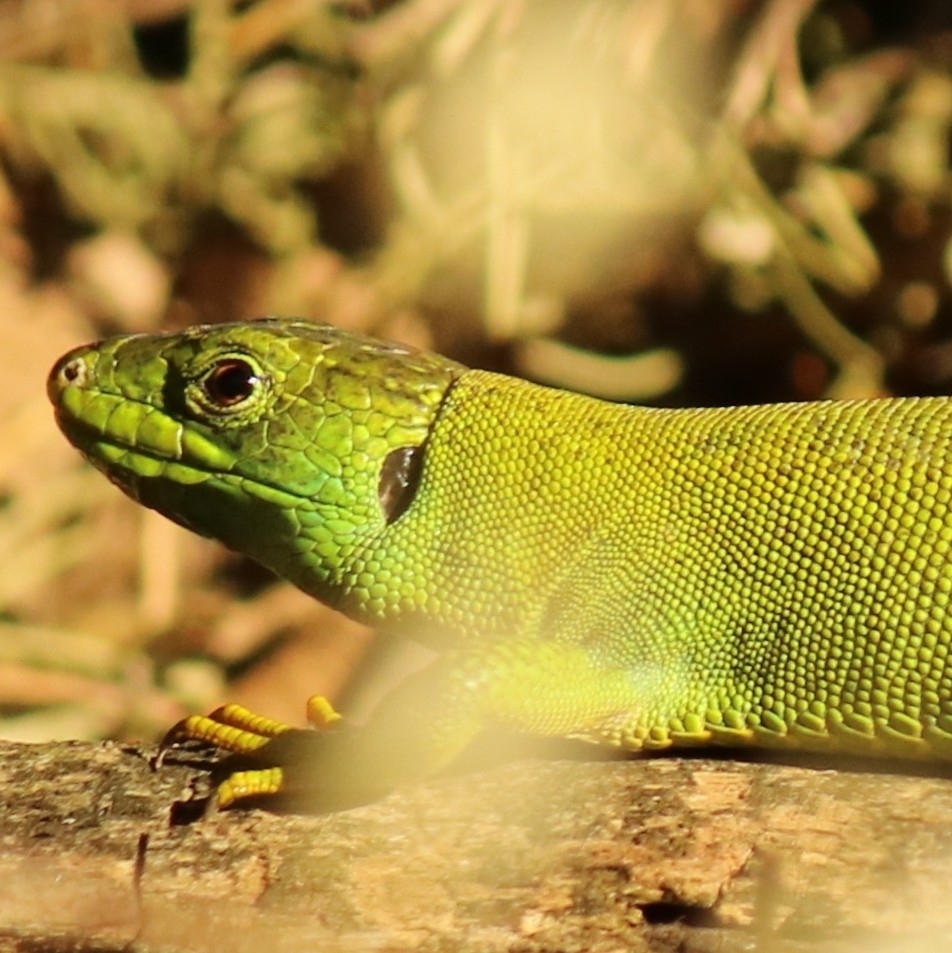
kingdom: Animalia
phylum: Chordata
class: Squamata
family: Lacertidae
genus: Lacerta
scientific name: Lacerta bilineata
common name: Western green lizard
